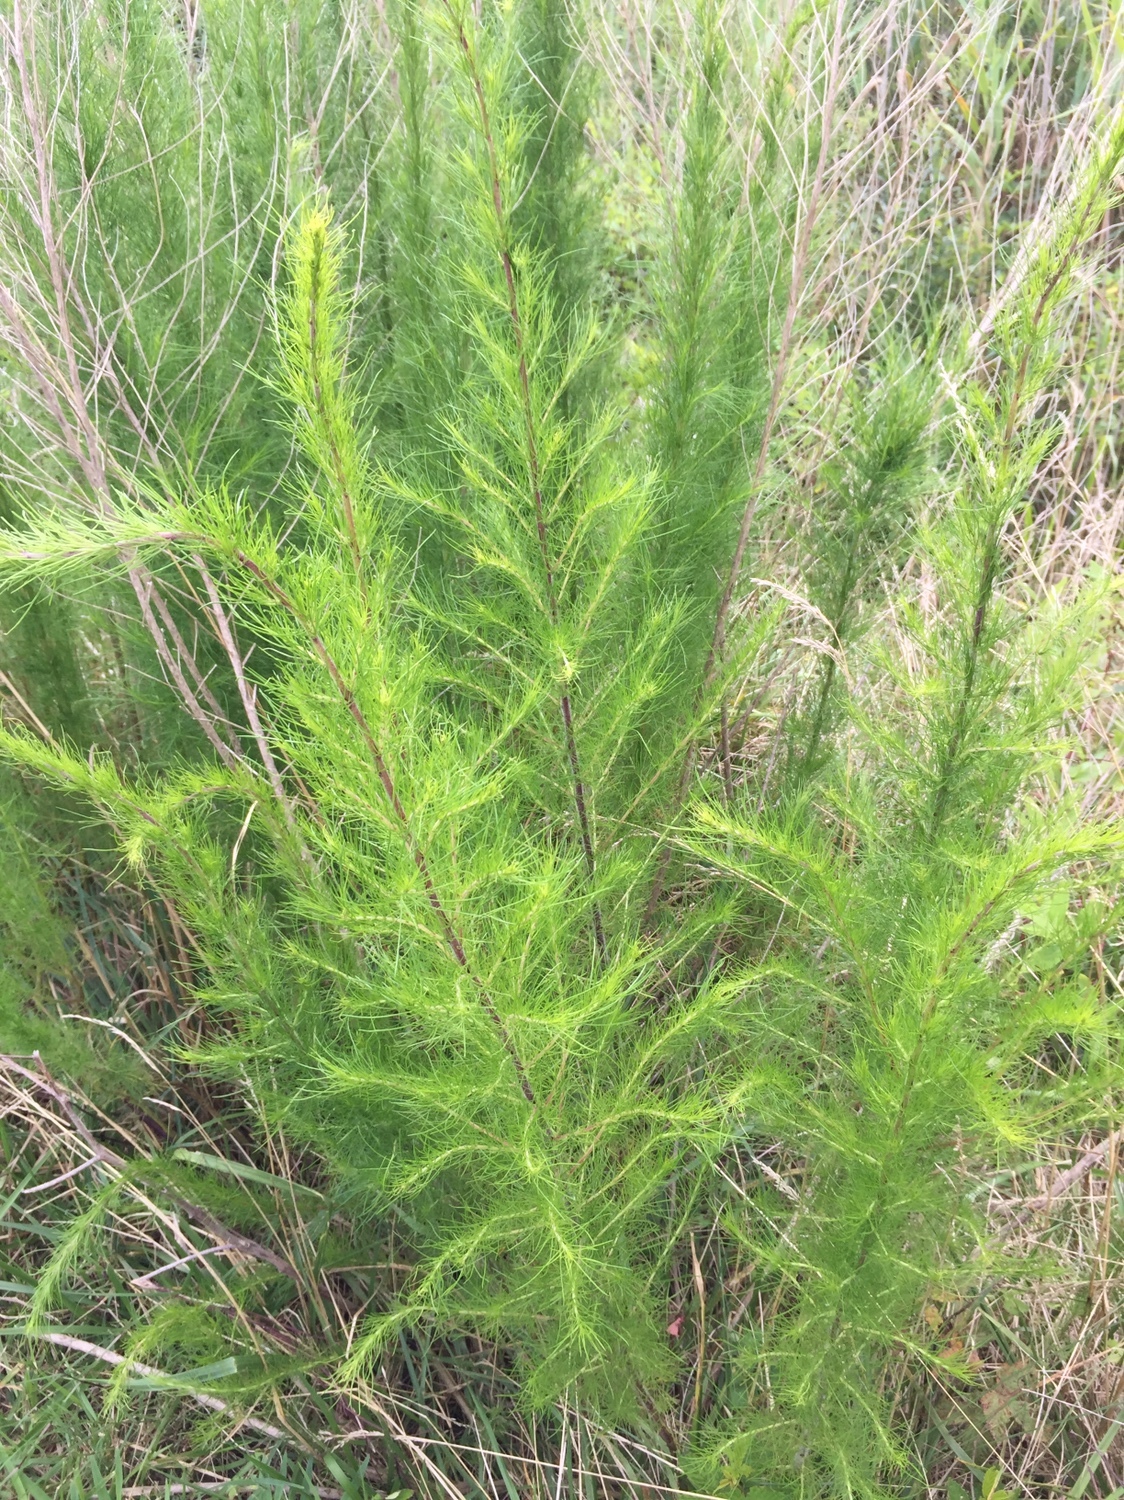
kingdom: Plantae
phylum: Tracheophyta
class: Magnoliopsida
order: Asterales
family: Asteraceae
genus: Eupatorium
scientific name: Eupatorium capillifolium
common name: Dog-fennel
